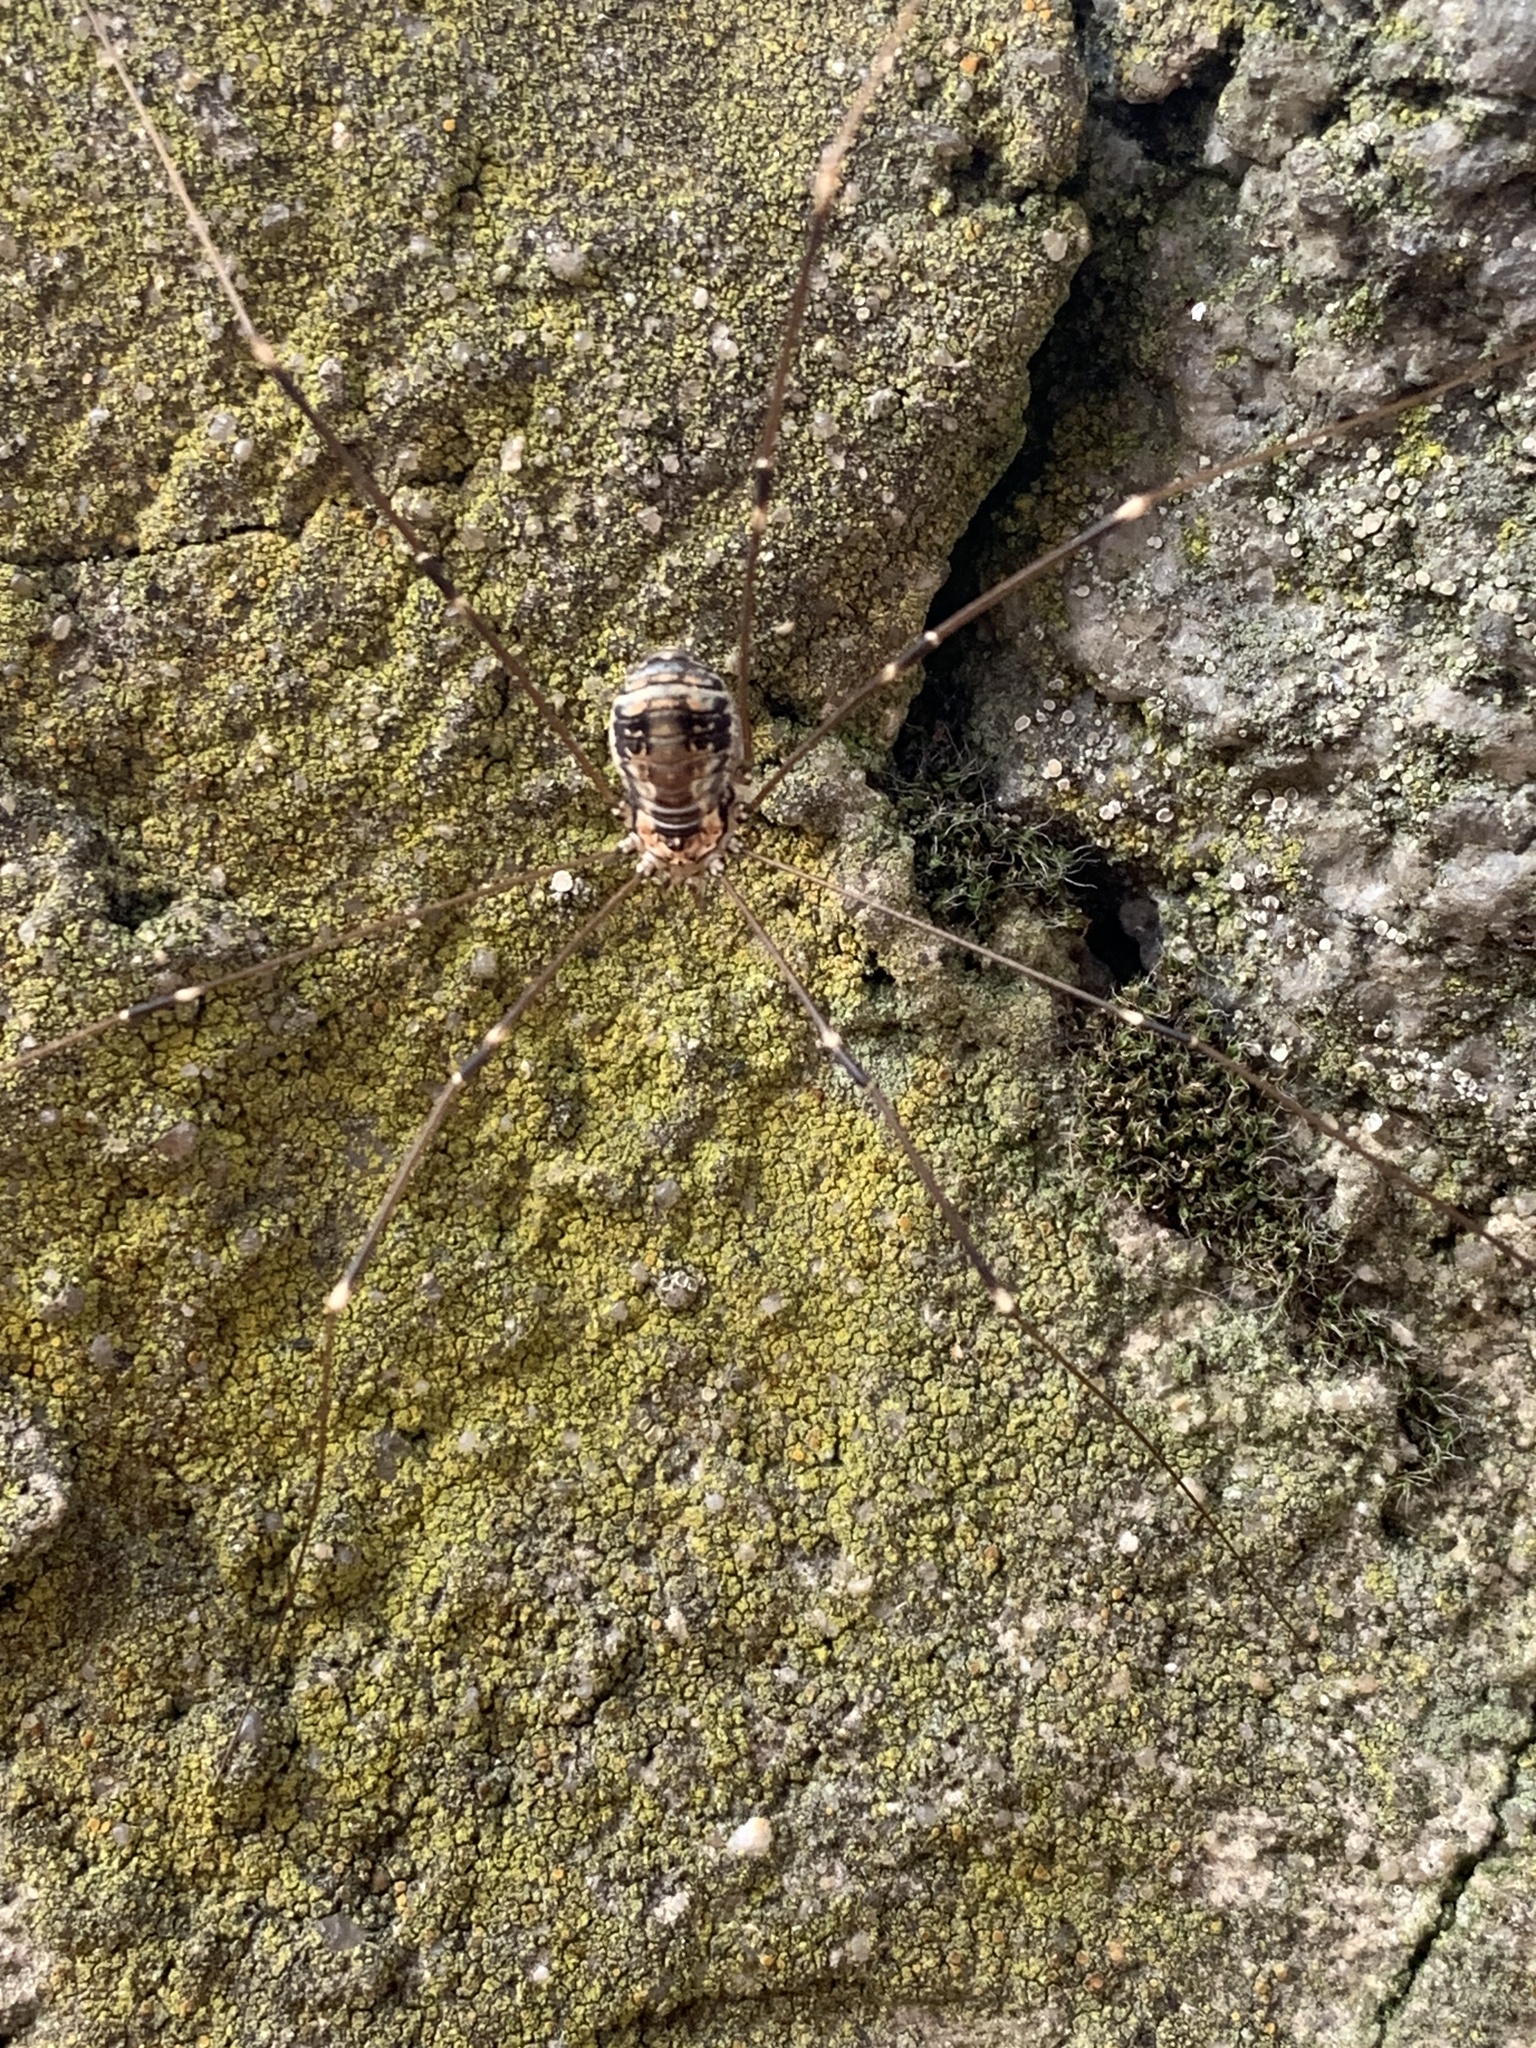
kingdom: Animalia
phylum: Arthropoda
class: Arachnida
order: Opiliones
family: Sclerosomatidae
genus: Leiobunum
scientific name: Leiobunum limbatum
